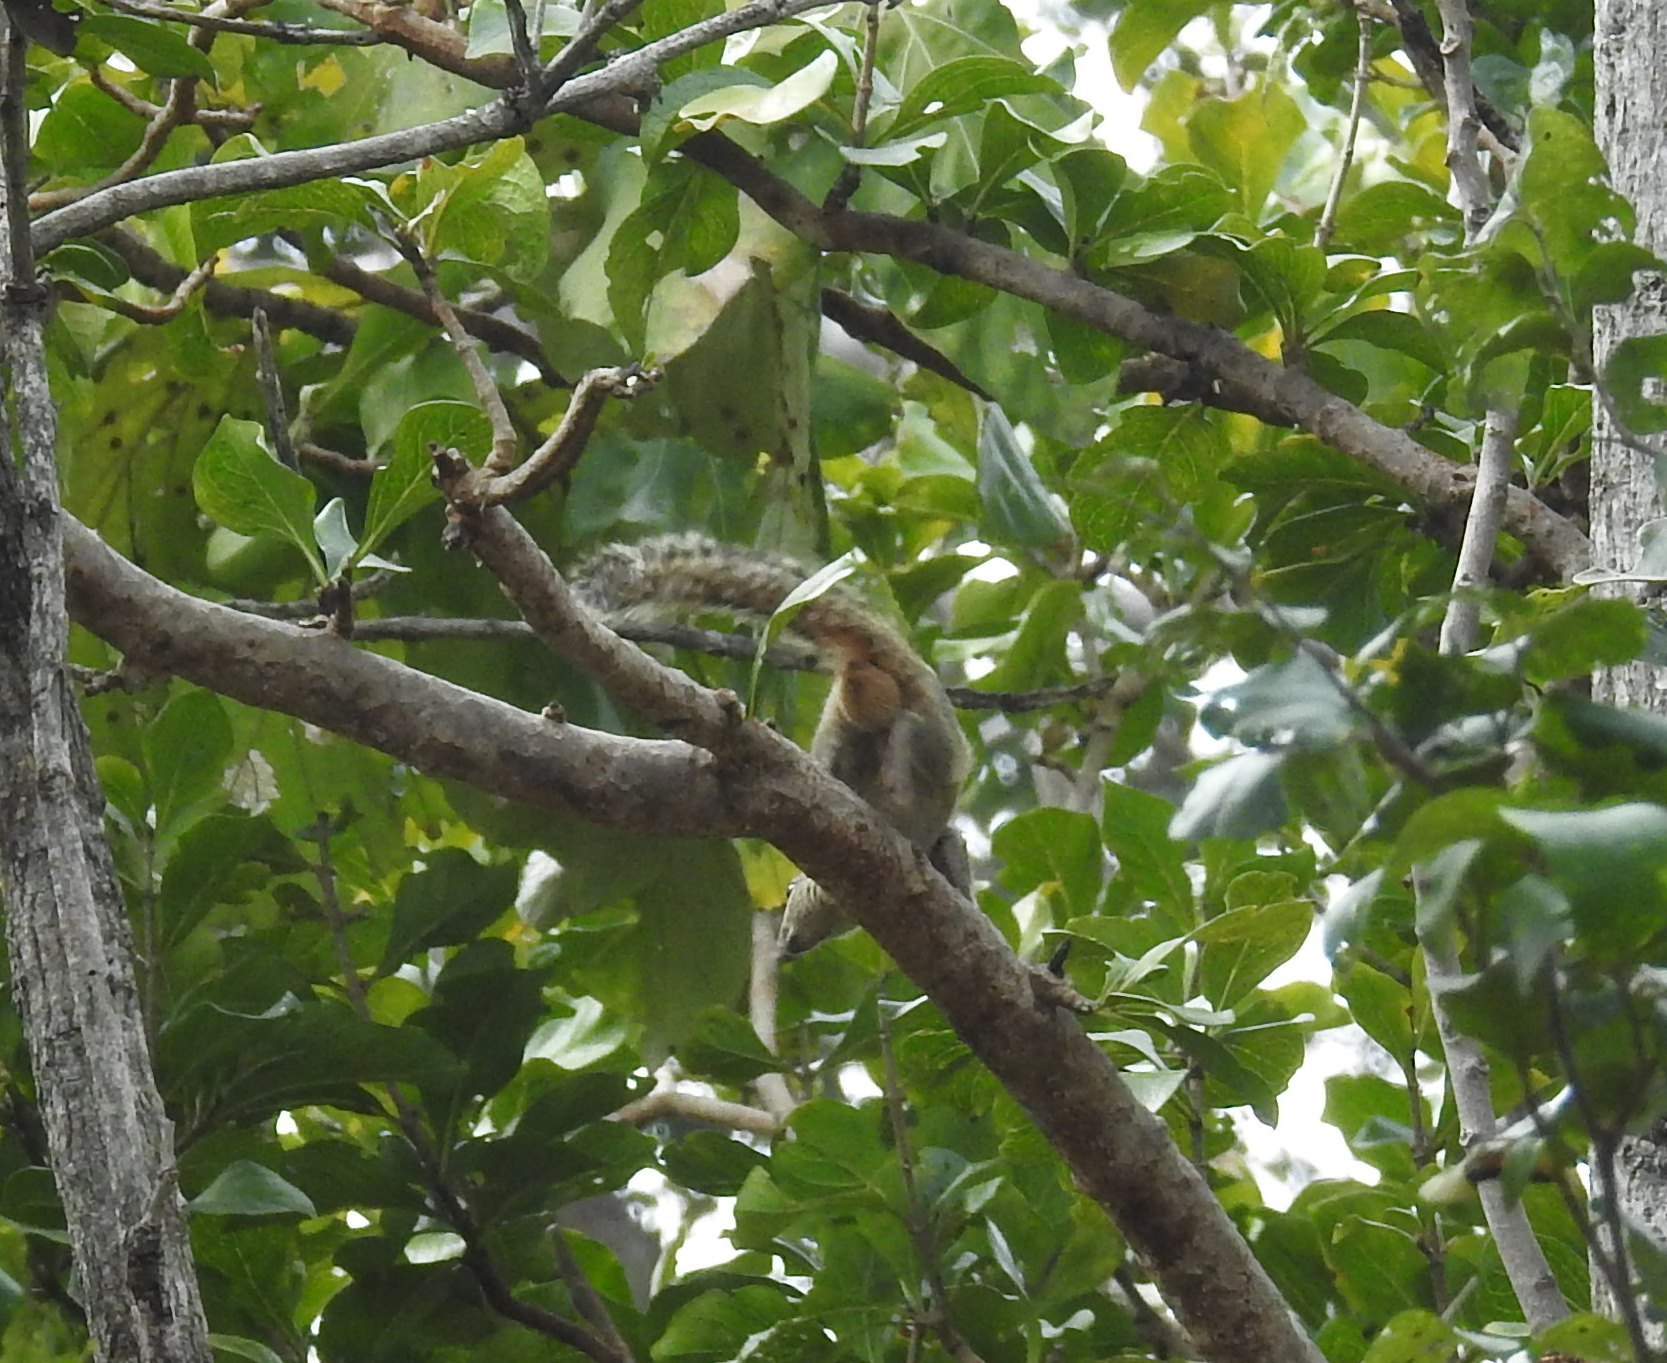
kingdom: Animalia
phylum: Chordata
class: Mammalia
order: Rodentia
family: Sciuridae
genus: Funambulus
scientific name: Funambulus palmarum
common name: Indian palm squirrel
